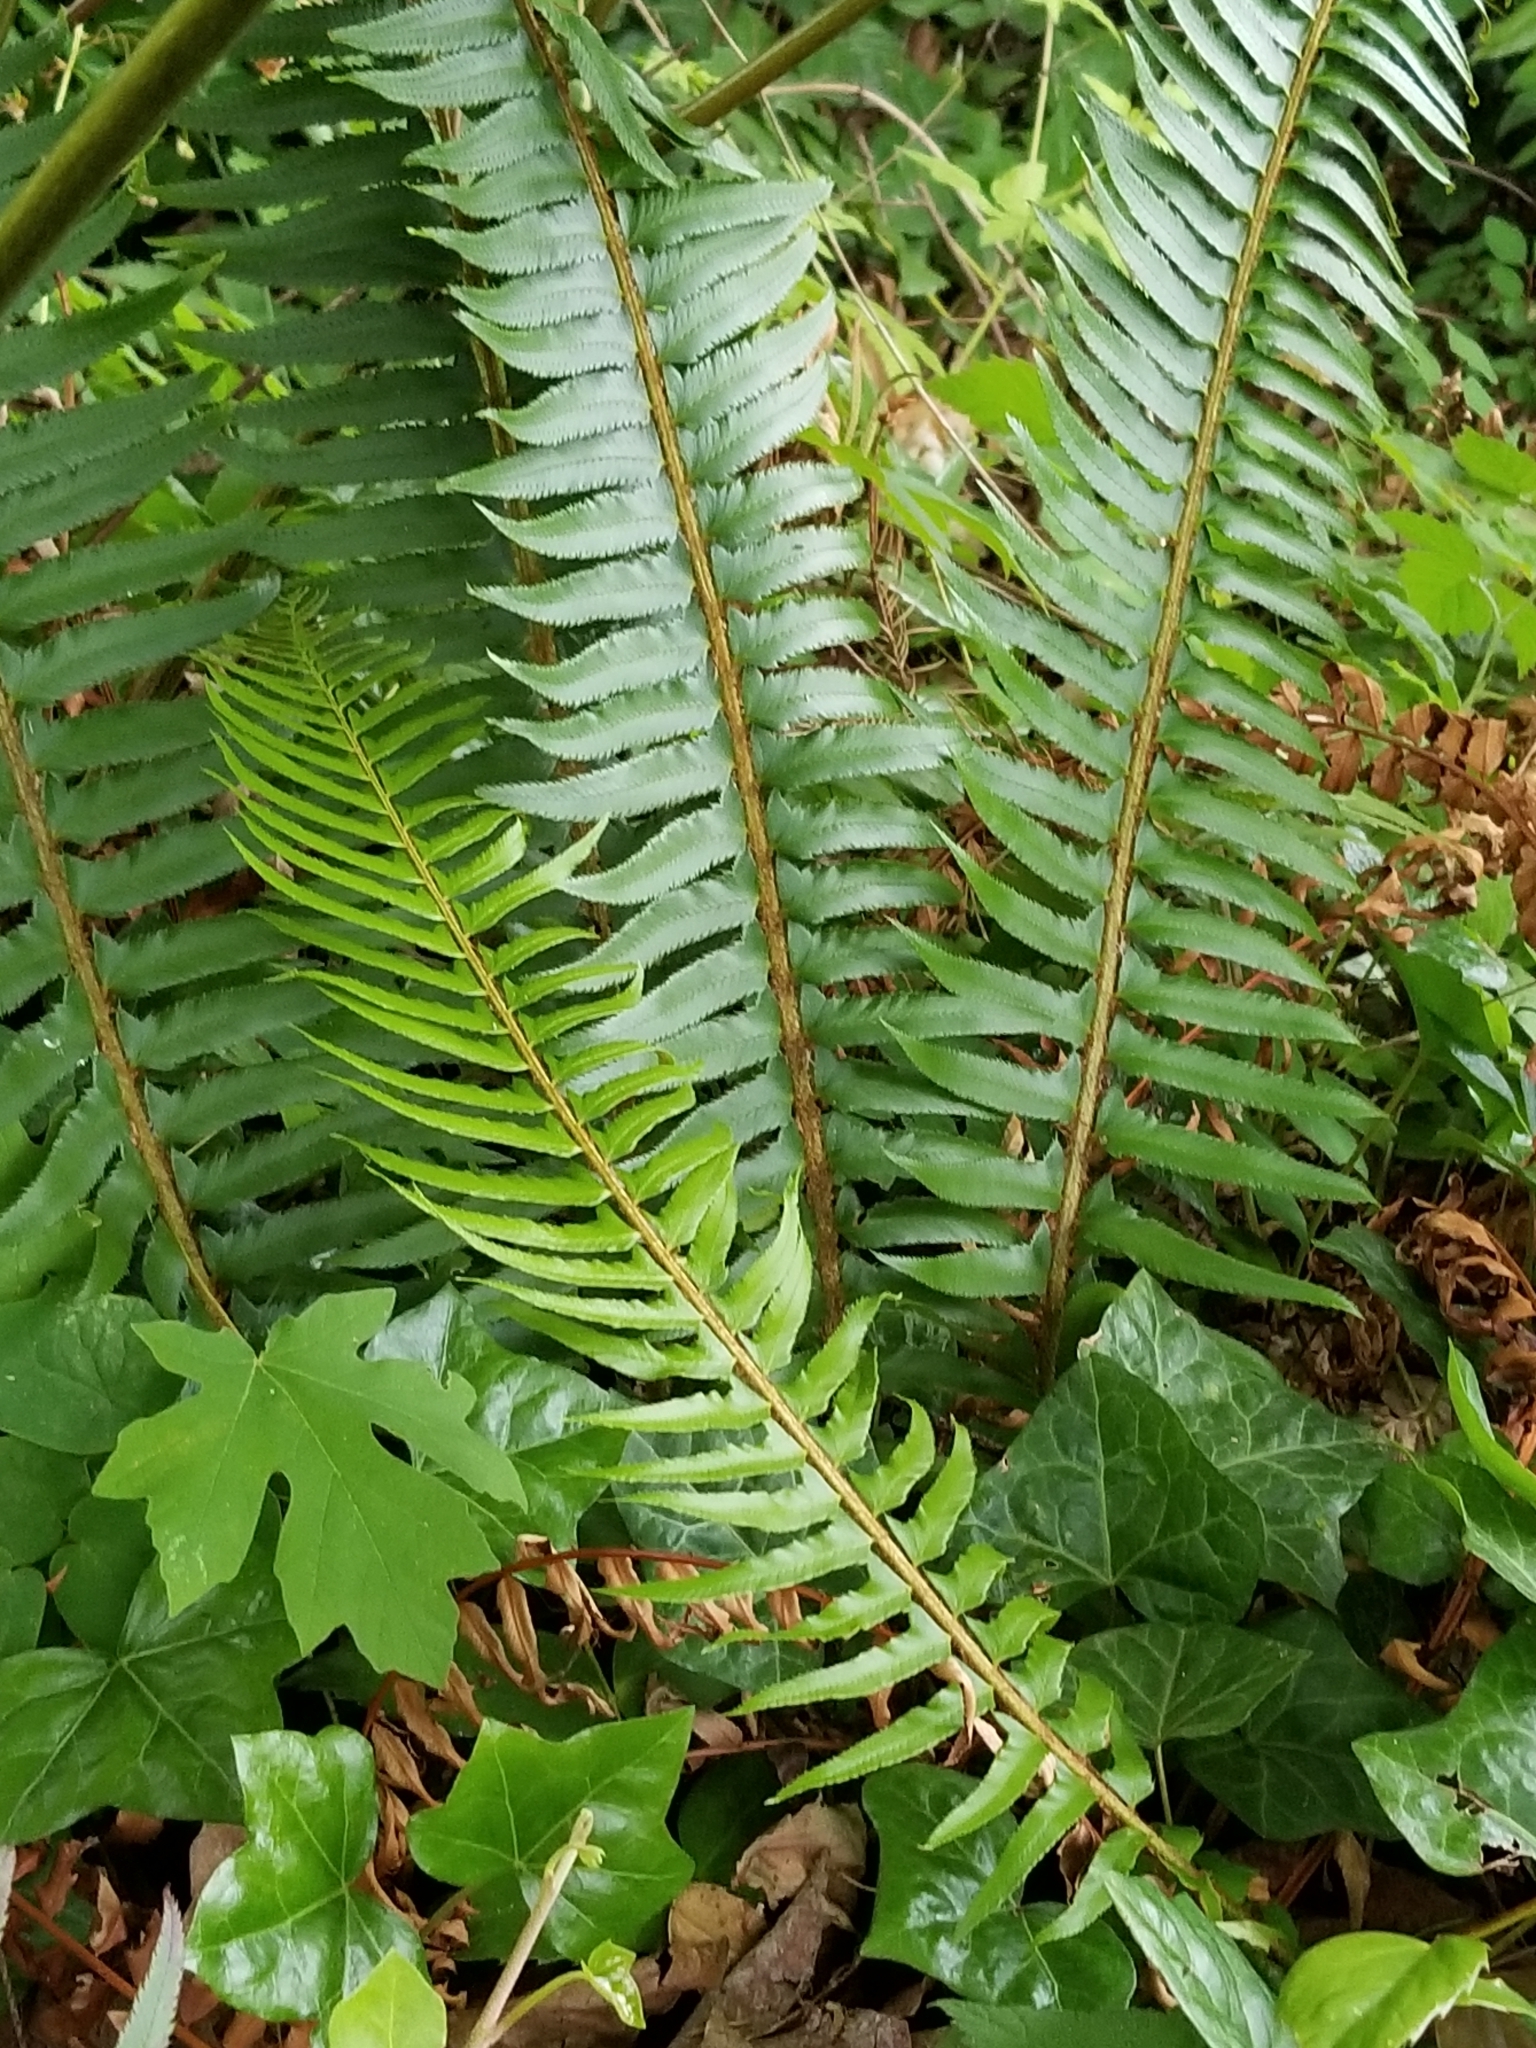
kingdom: Plantae
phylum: Tracheophyta
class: Polypodiopsida
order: Polypodiales
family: Dryopteridaceae
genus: Polystichum
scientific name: Polystichum munitum
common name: Western sword-fern
